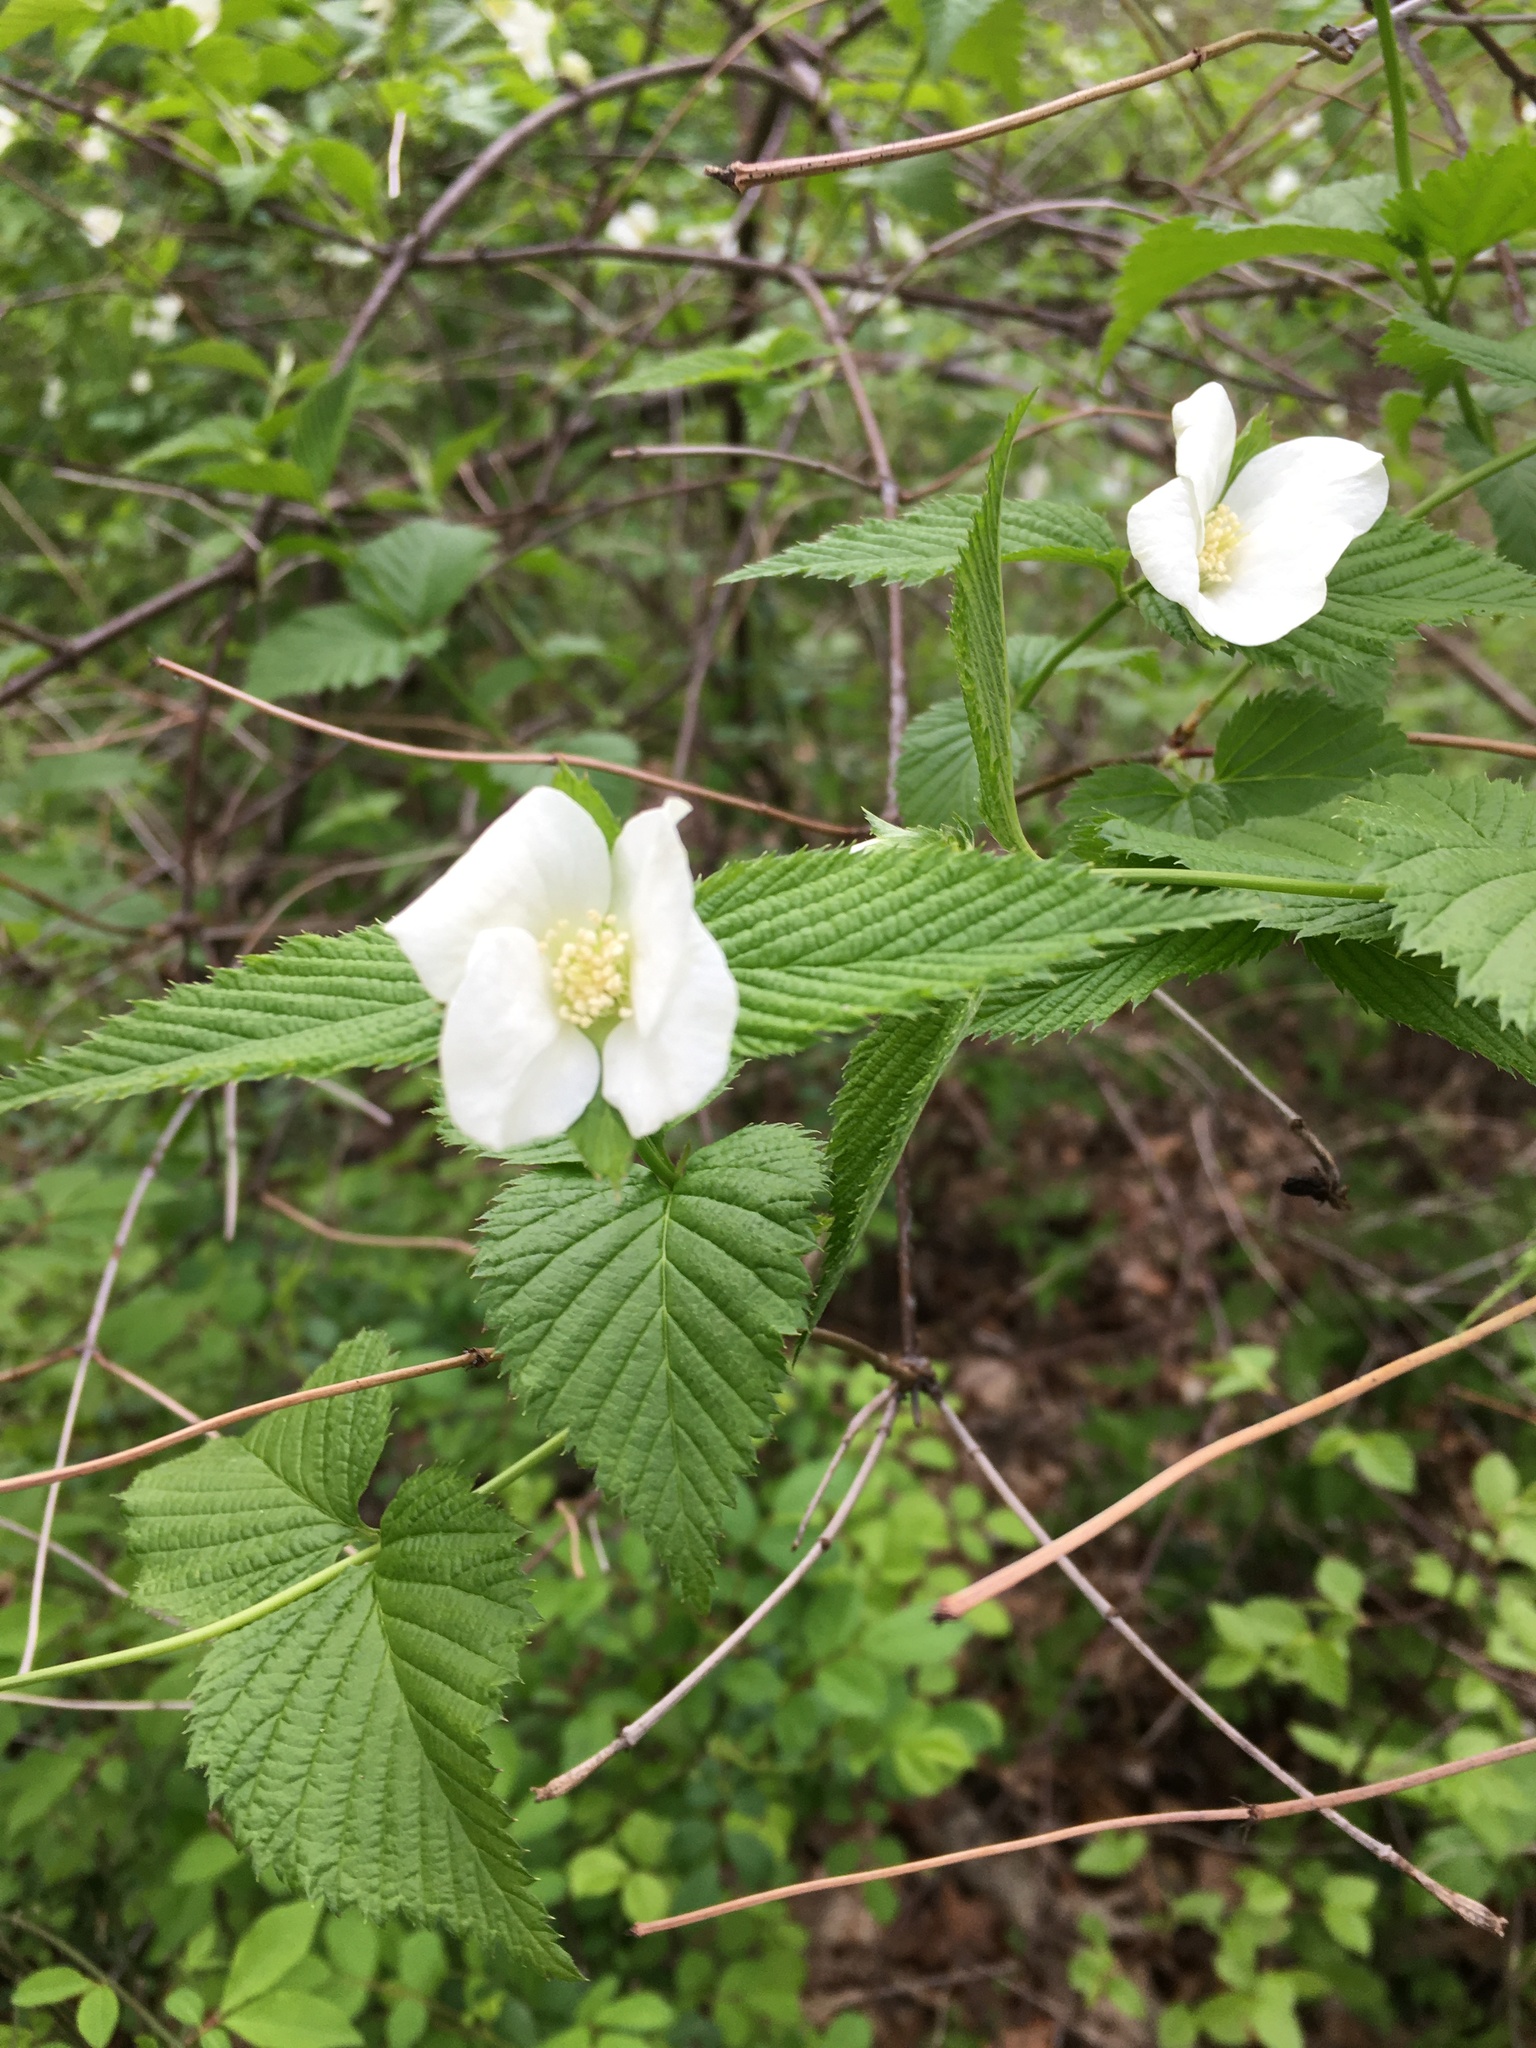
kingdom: Plantae
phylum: Tracheophyta
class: Magnoliopsida
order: Rosales
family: Rosaceae
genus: Rhodotypos
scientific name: Rhodotypos scandens
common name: Jetbead
